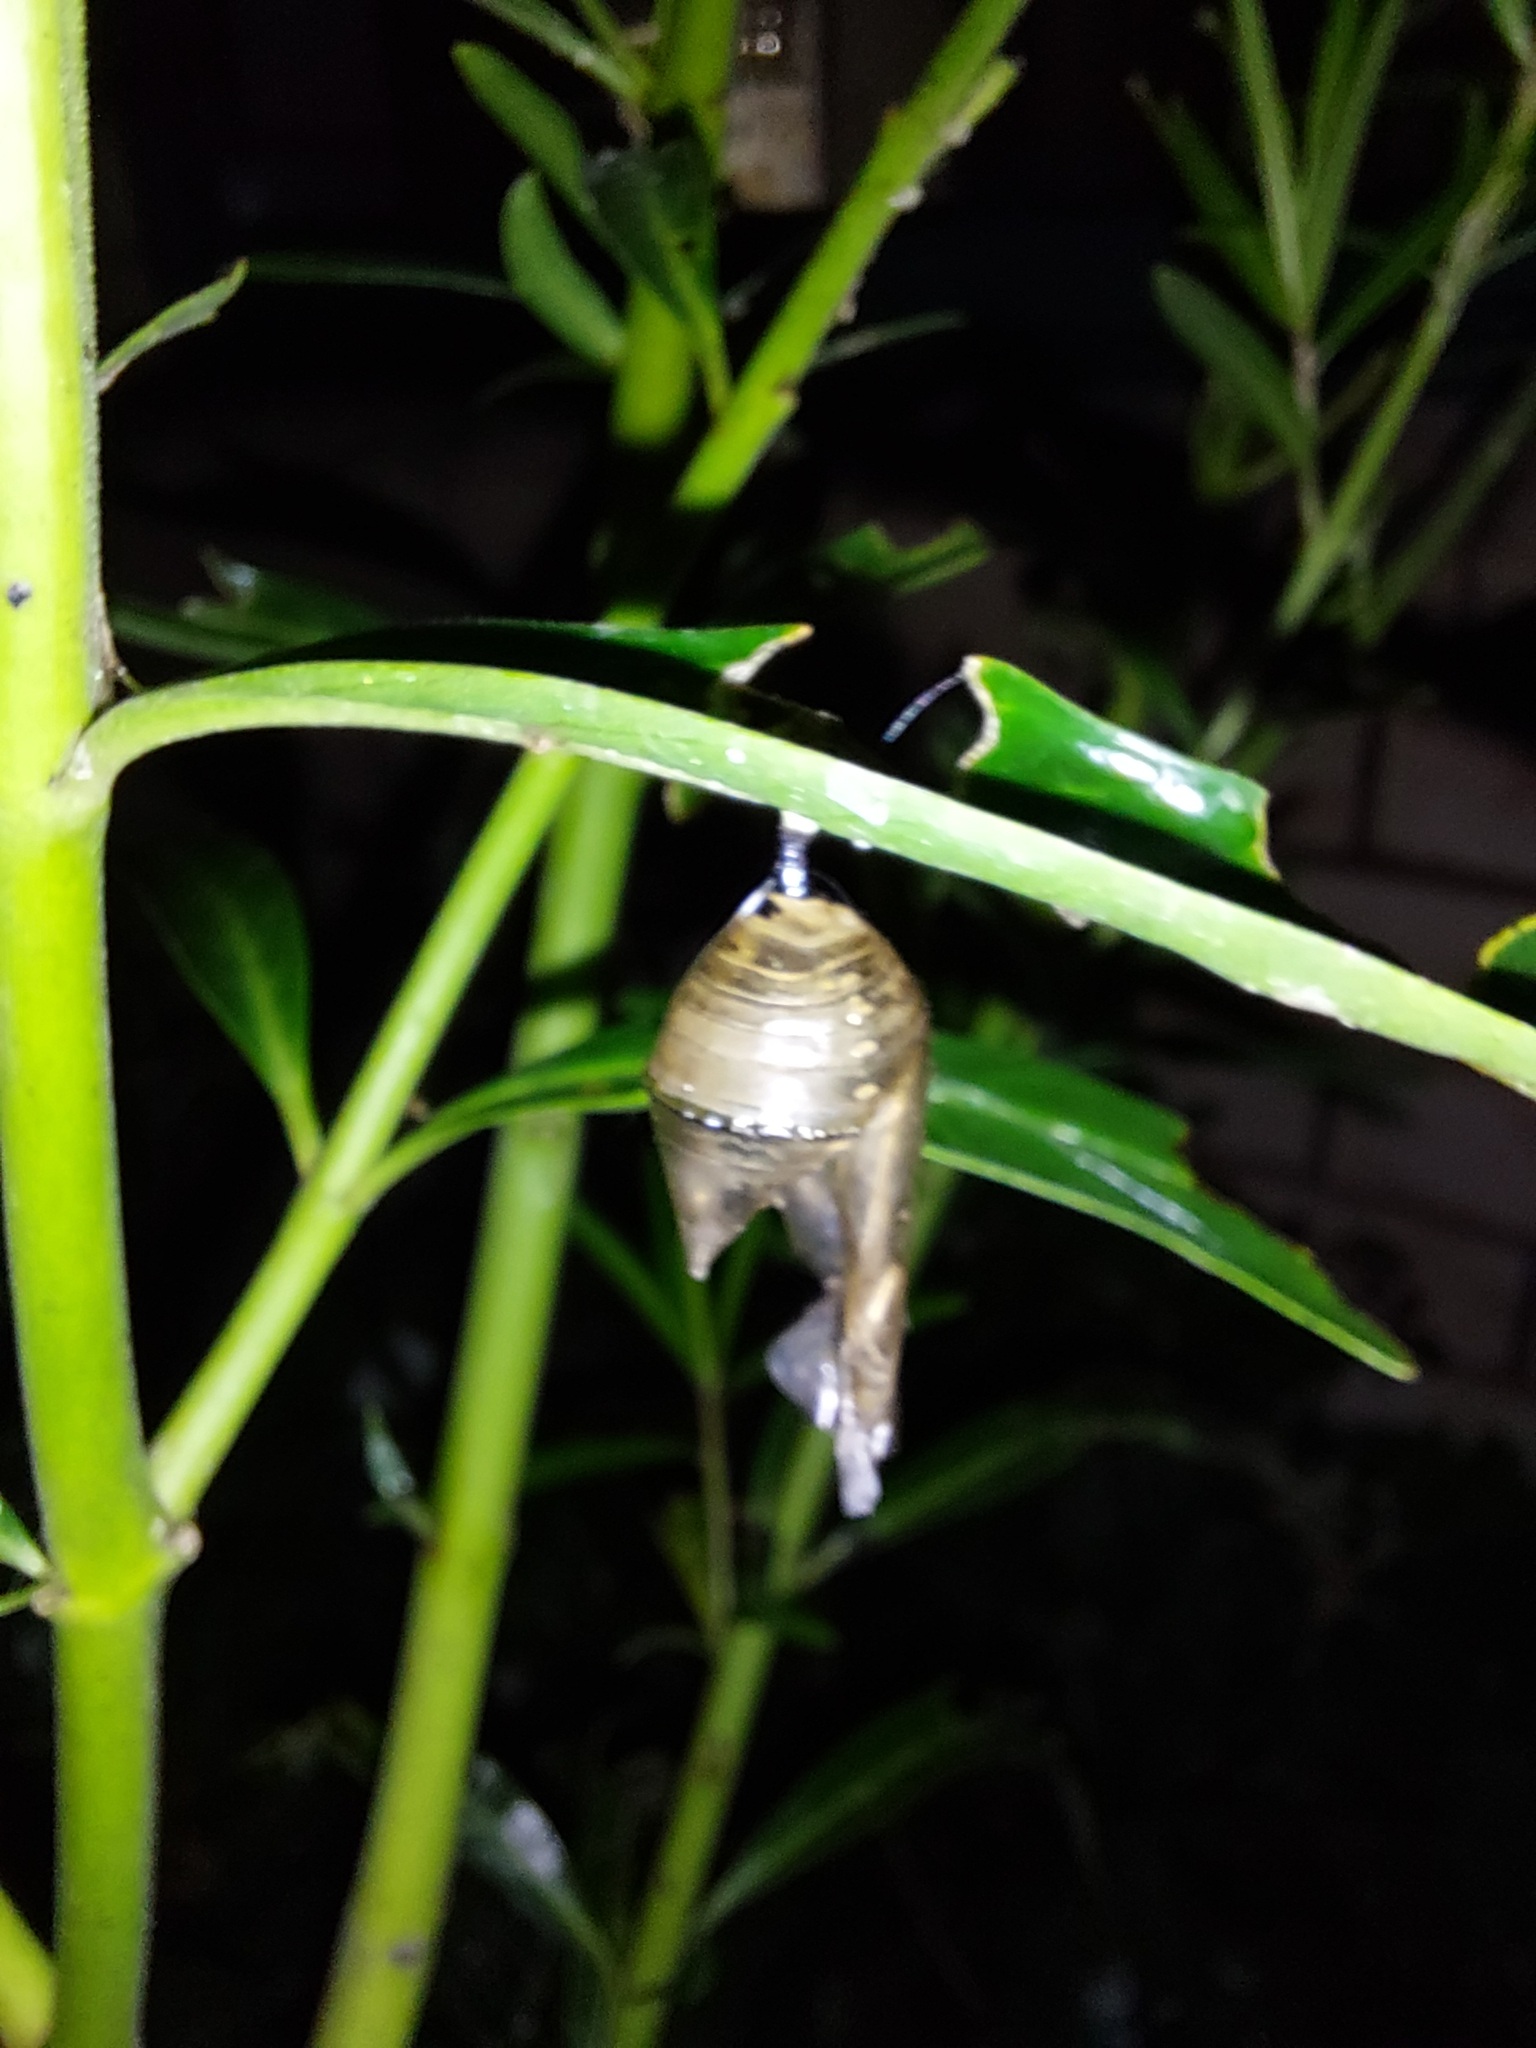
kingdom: Animalia
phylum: Arthropoda
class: Insecta
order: Lepidoptera
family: Nymphalidae
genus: Danaus
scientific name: Danaus plexippus
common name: Monarch
